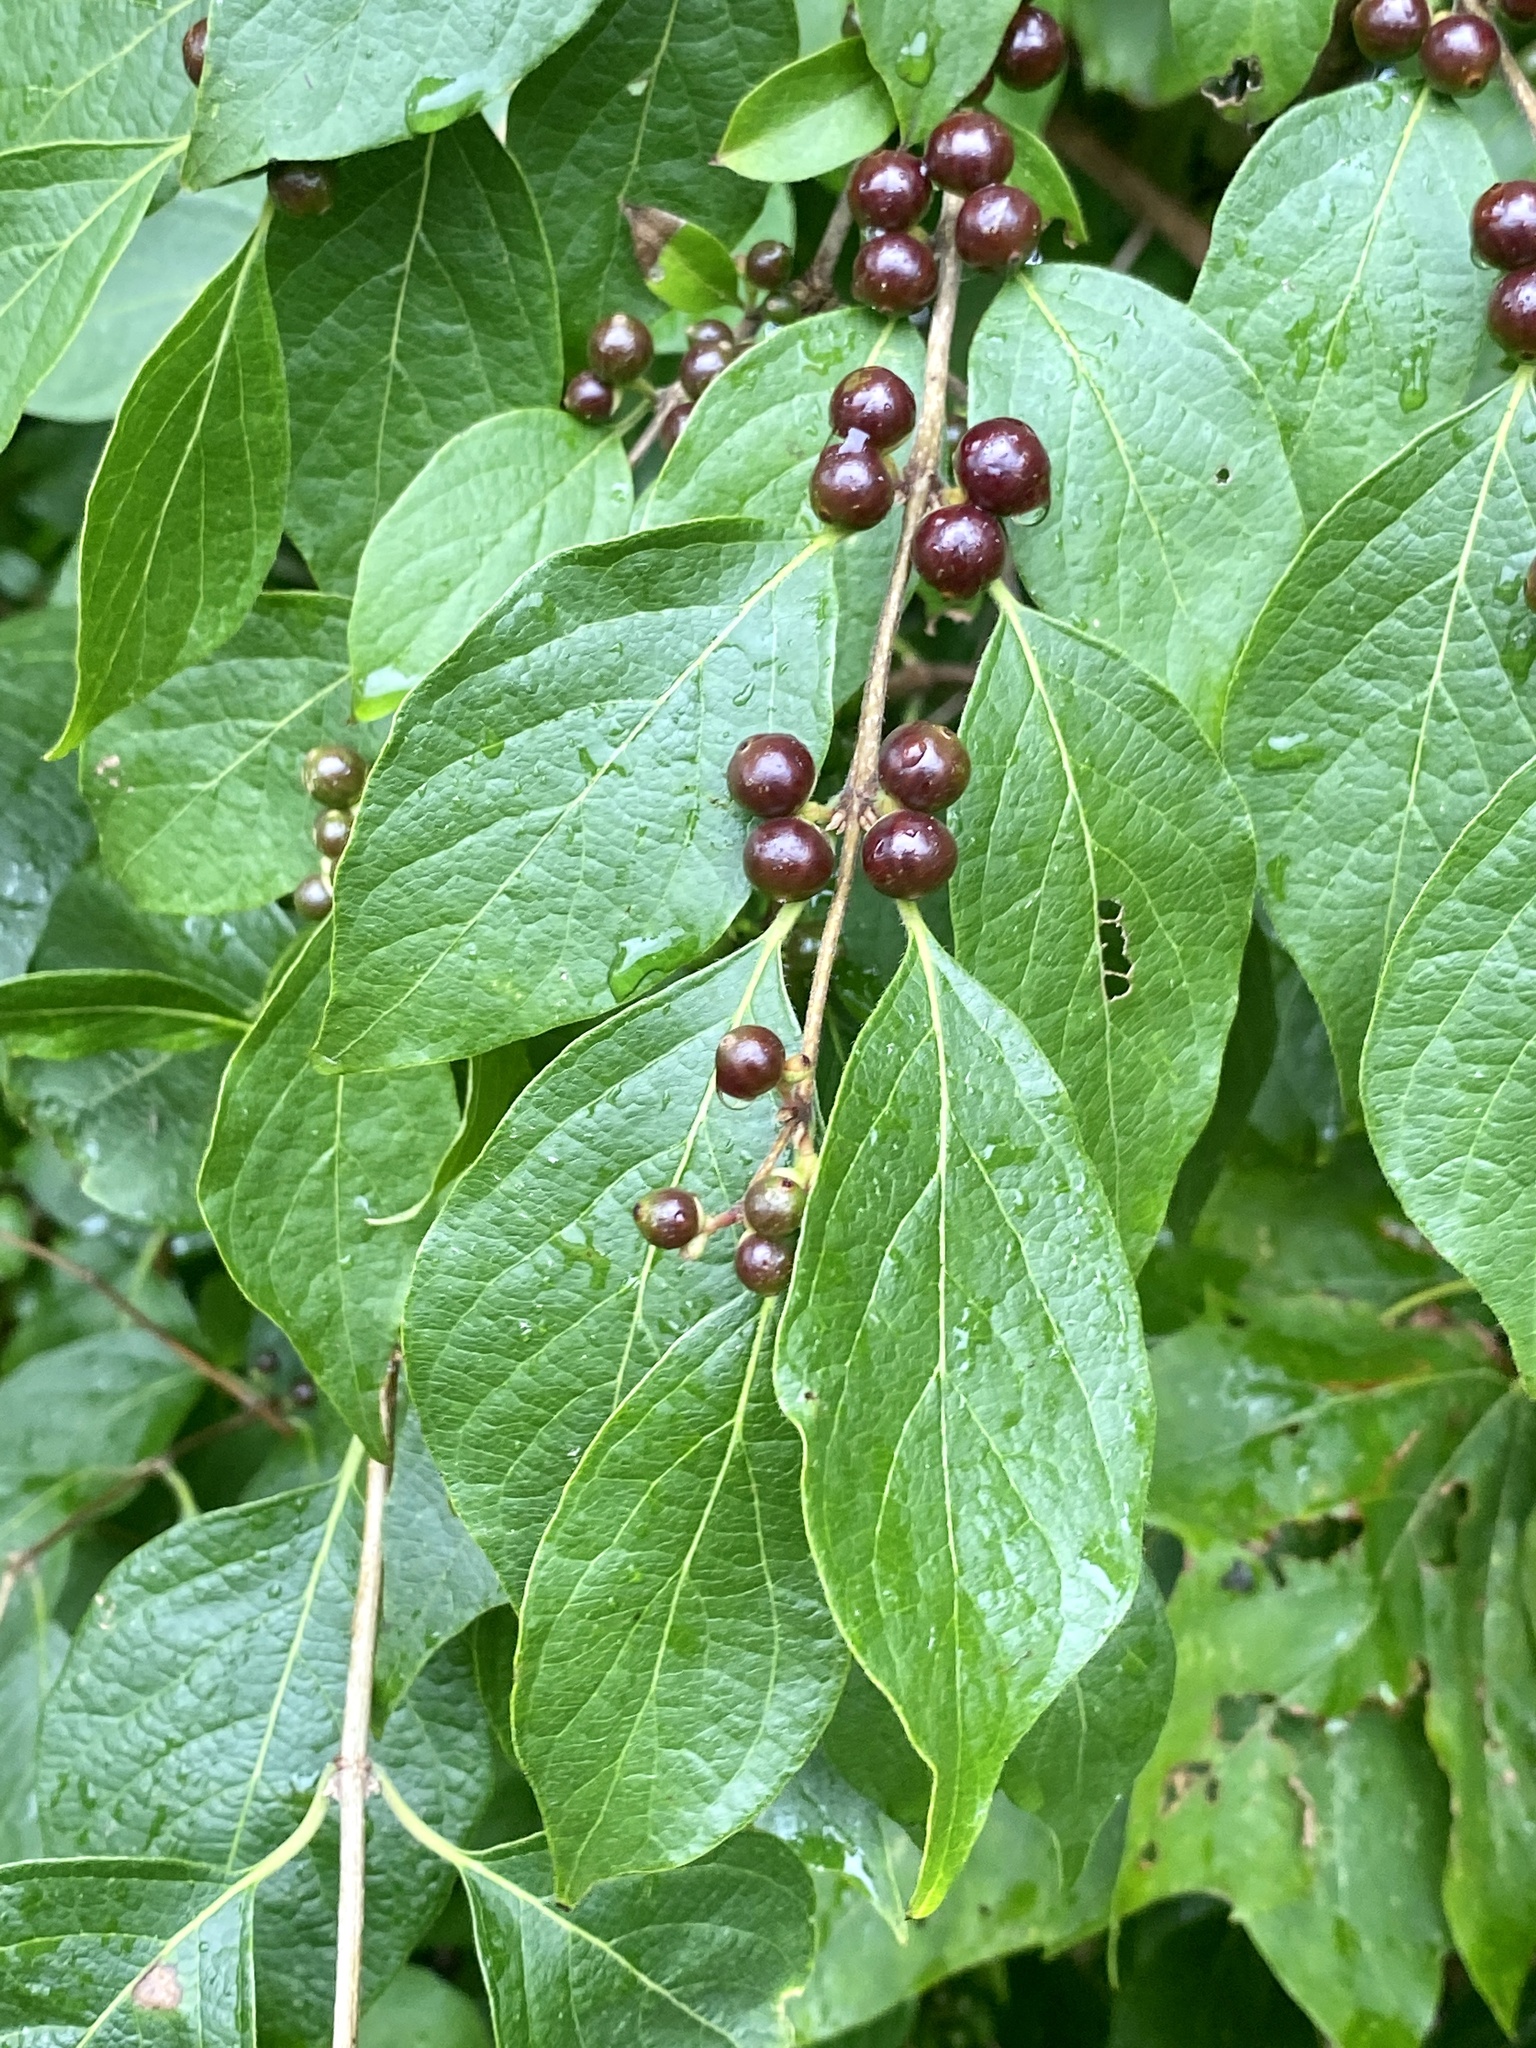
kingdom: Plantae
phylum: Tracheophyta
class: Magnoliopsida
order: Dipsacales
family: Caprifoliaceae
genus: Lonicera
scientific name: Lonicera maackii
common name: Amur honeysuckle
